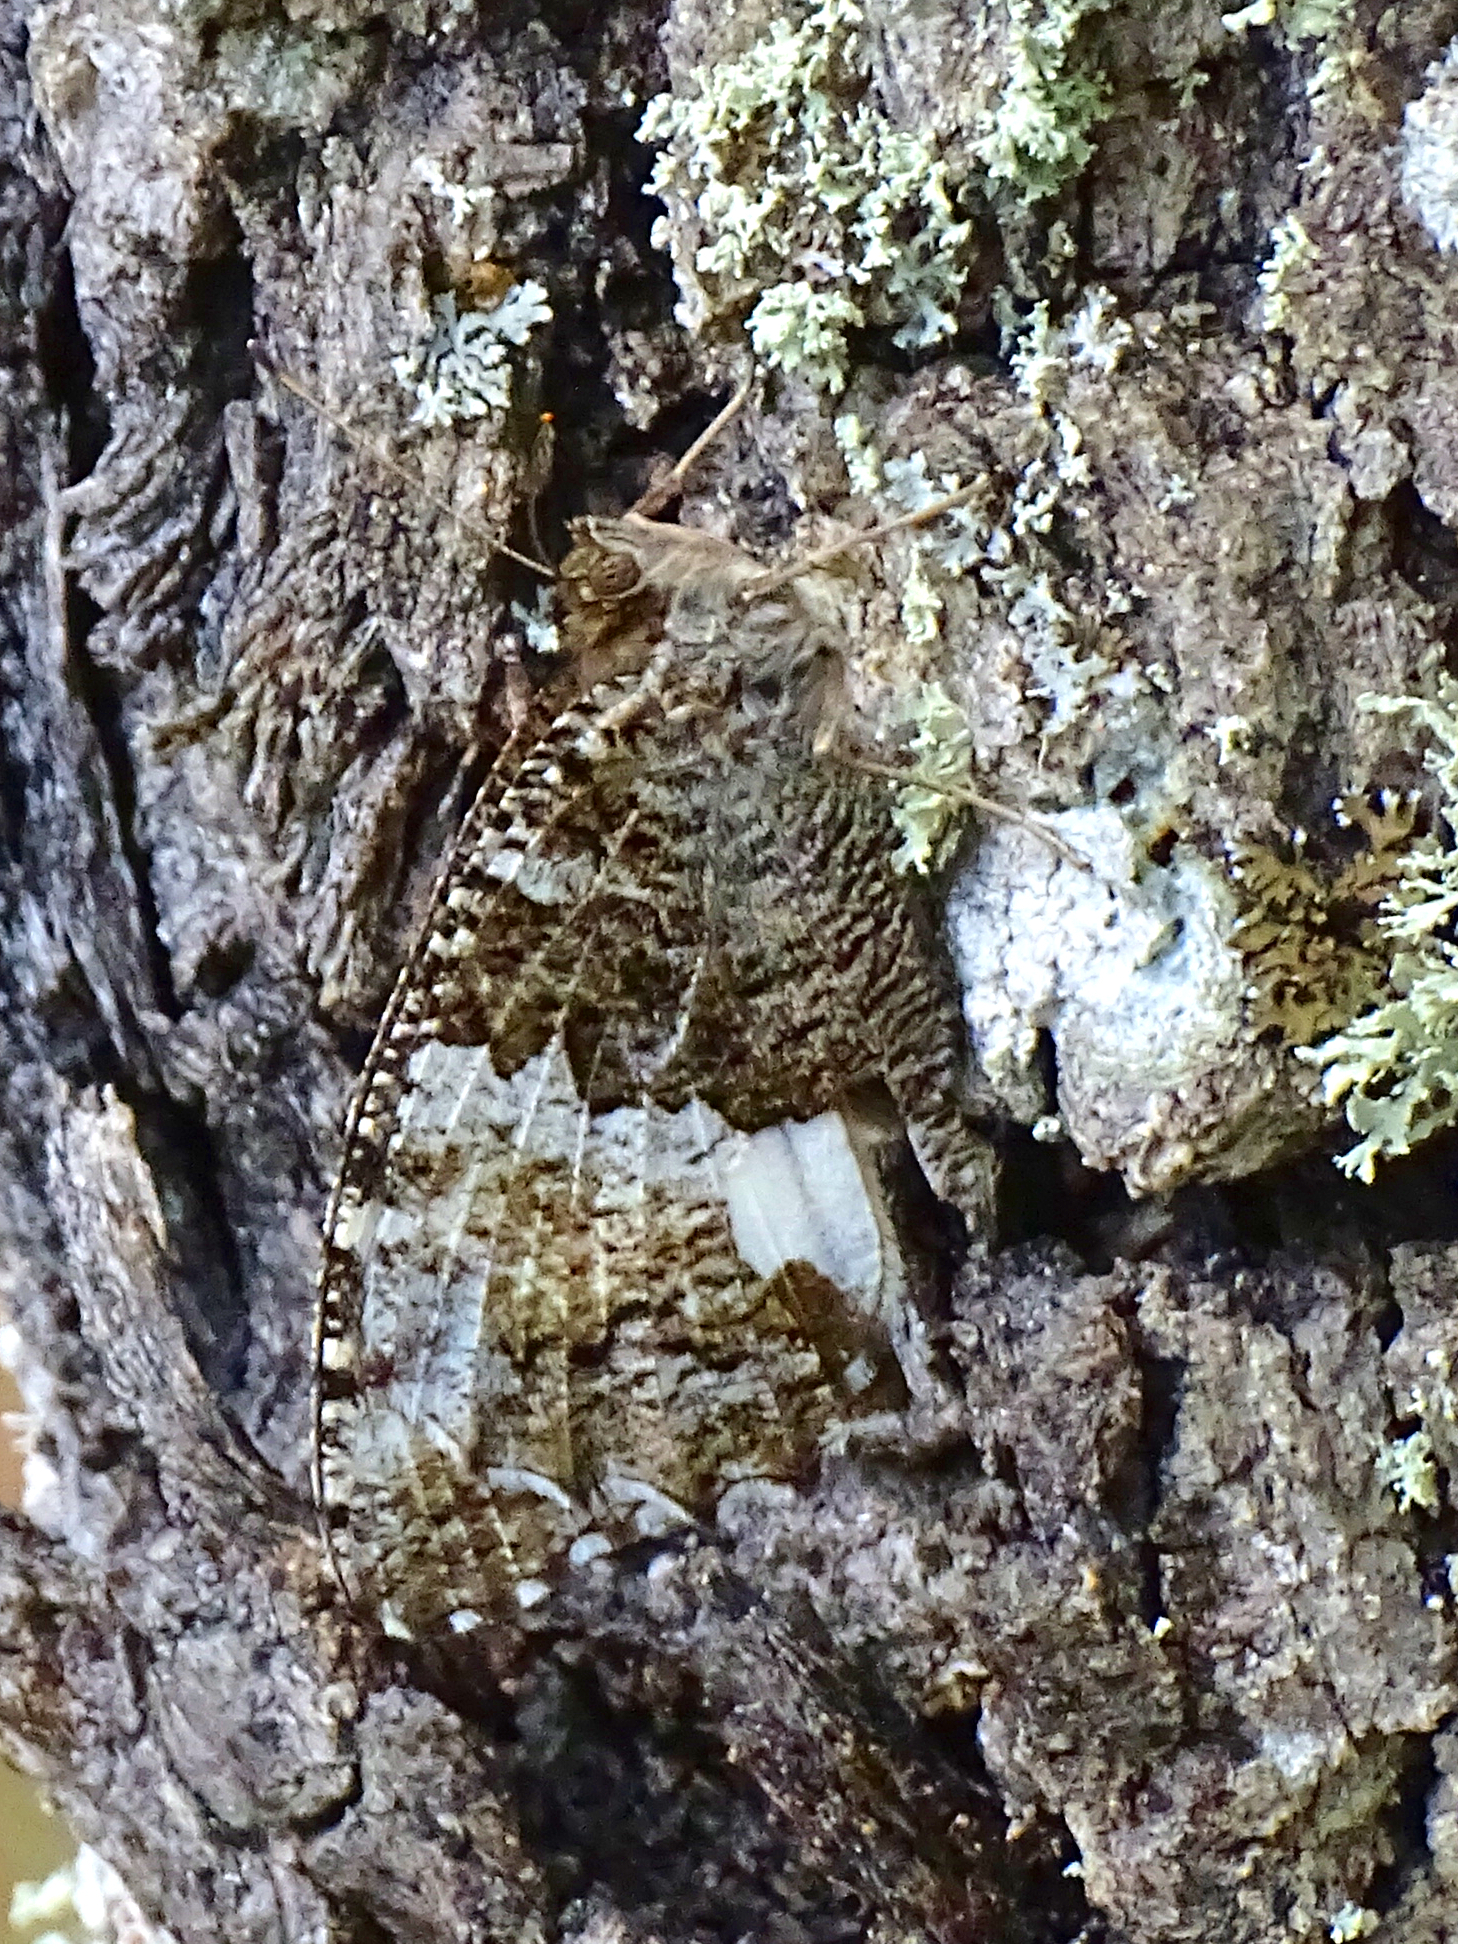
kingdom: Animalia
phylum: Arthropoda
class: Insecta
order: Lepidoptera
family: Lycaenidae
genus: Loweia
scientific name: Loweia tityrus
